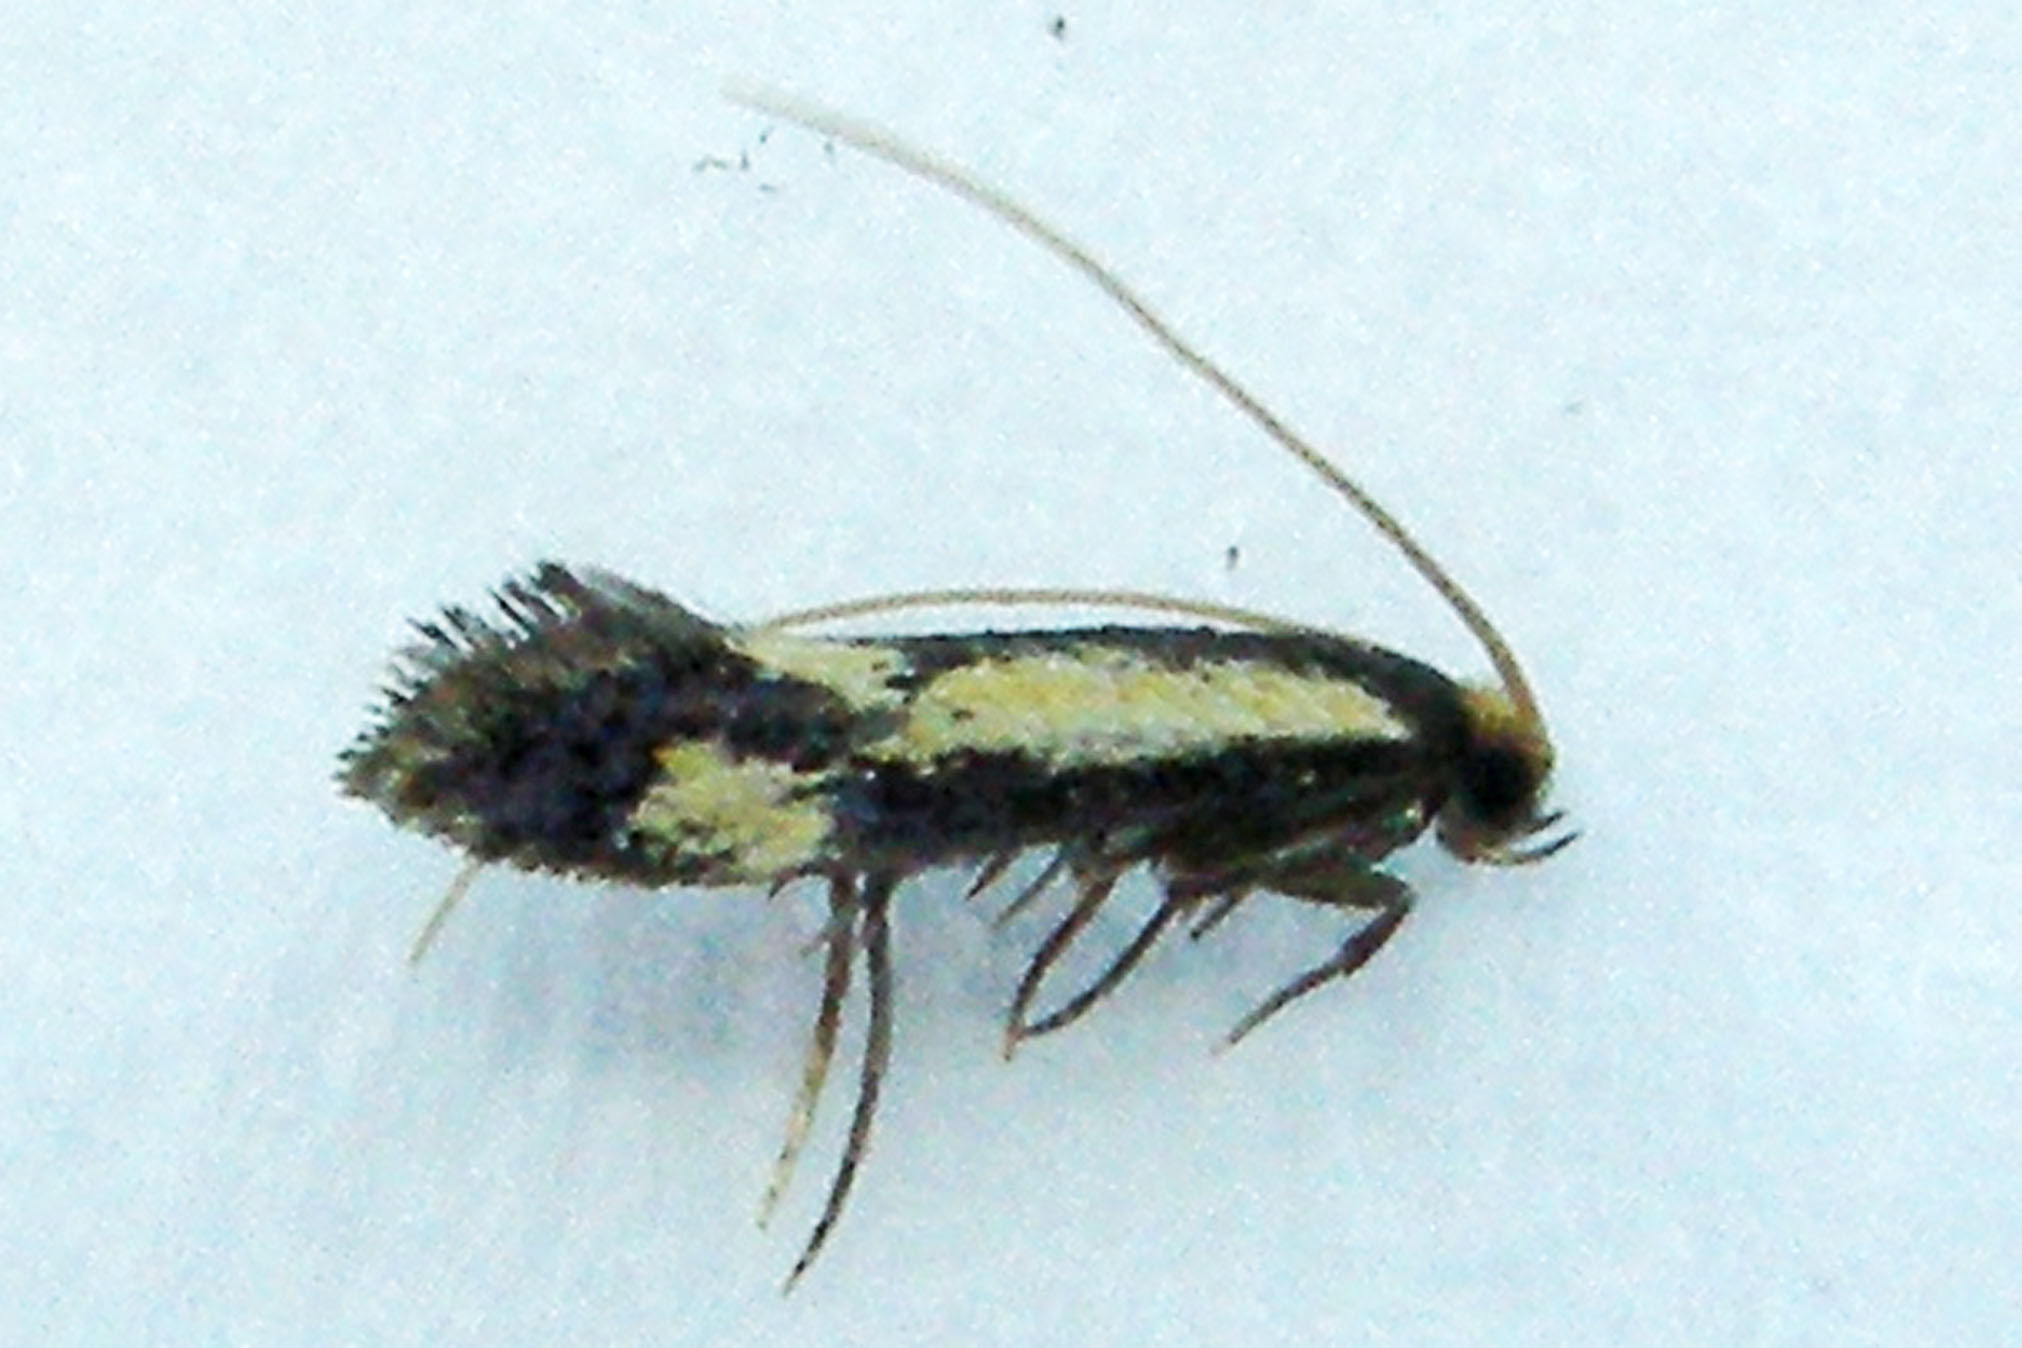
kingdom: Animalia
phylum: Arthropoda
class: Insecta
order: Lepidoptera
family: Meessiidae
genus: Isocorypha
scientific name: Isocorypha mediostriatella
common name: Old gold isocorypha moth
